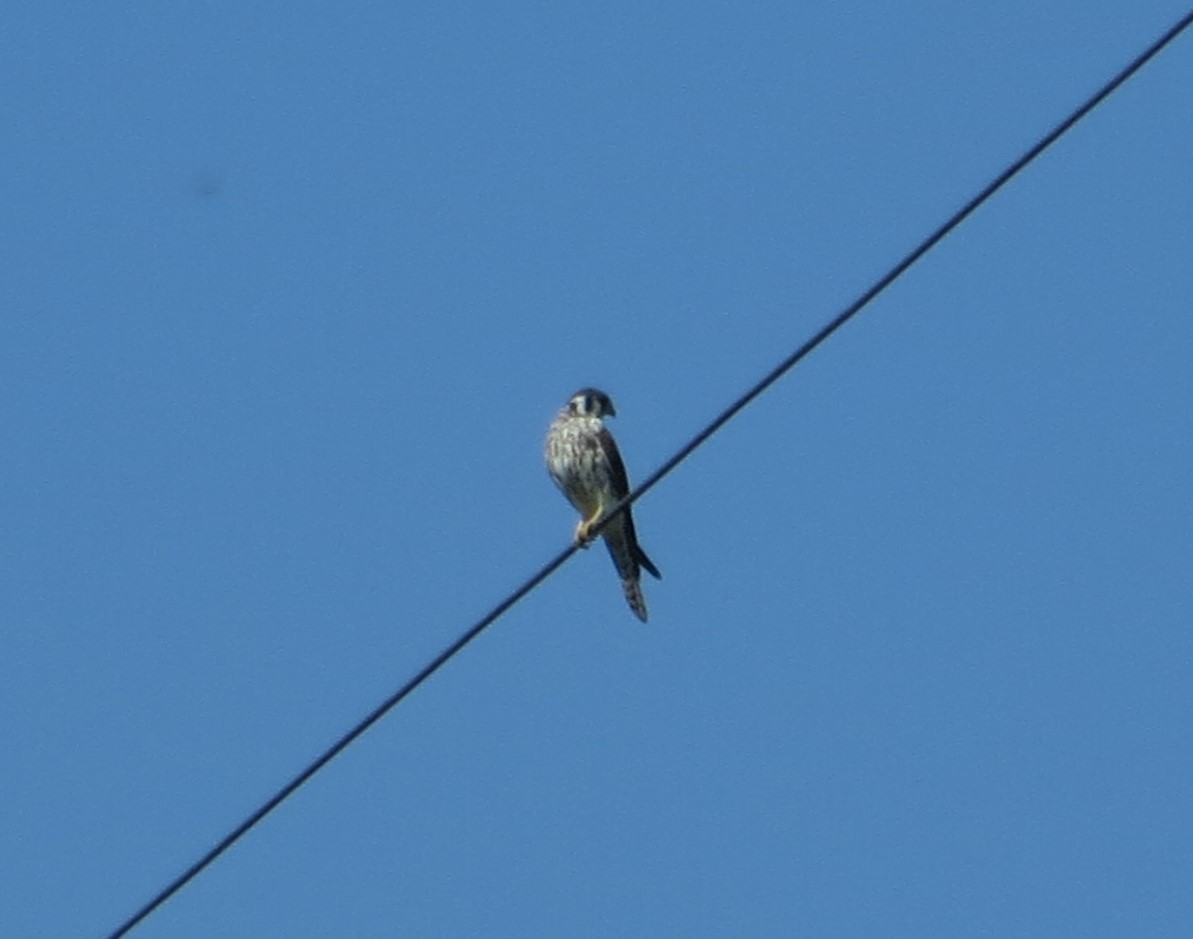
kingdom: Animalia
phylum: Chordata
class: Aves
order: Falconiformes
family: Falconidae
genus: Falco
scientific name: Falco sparverius
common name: American kestrel
